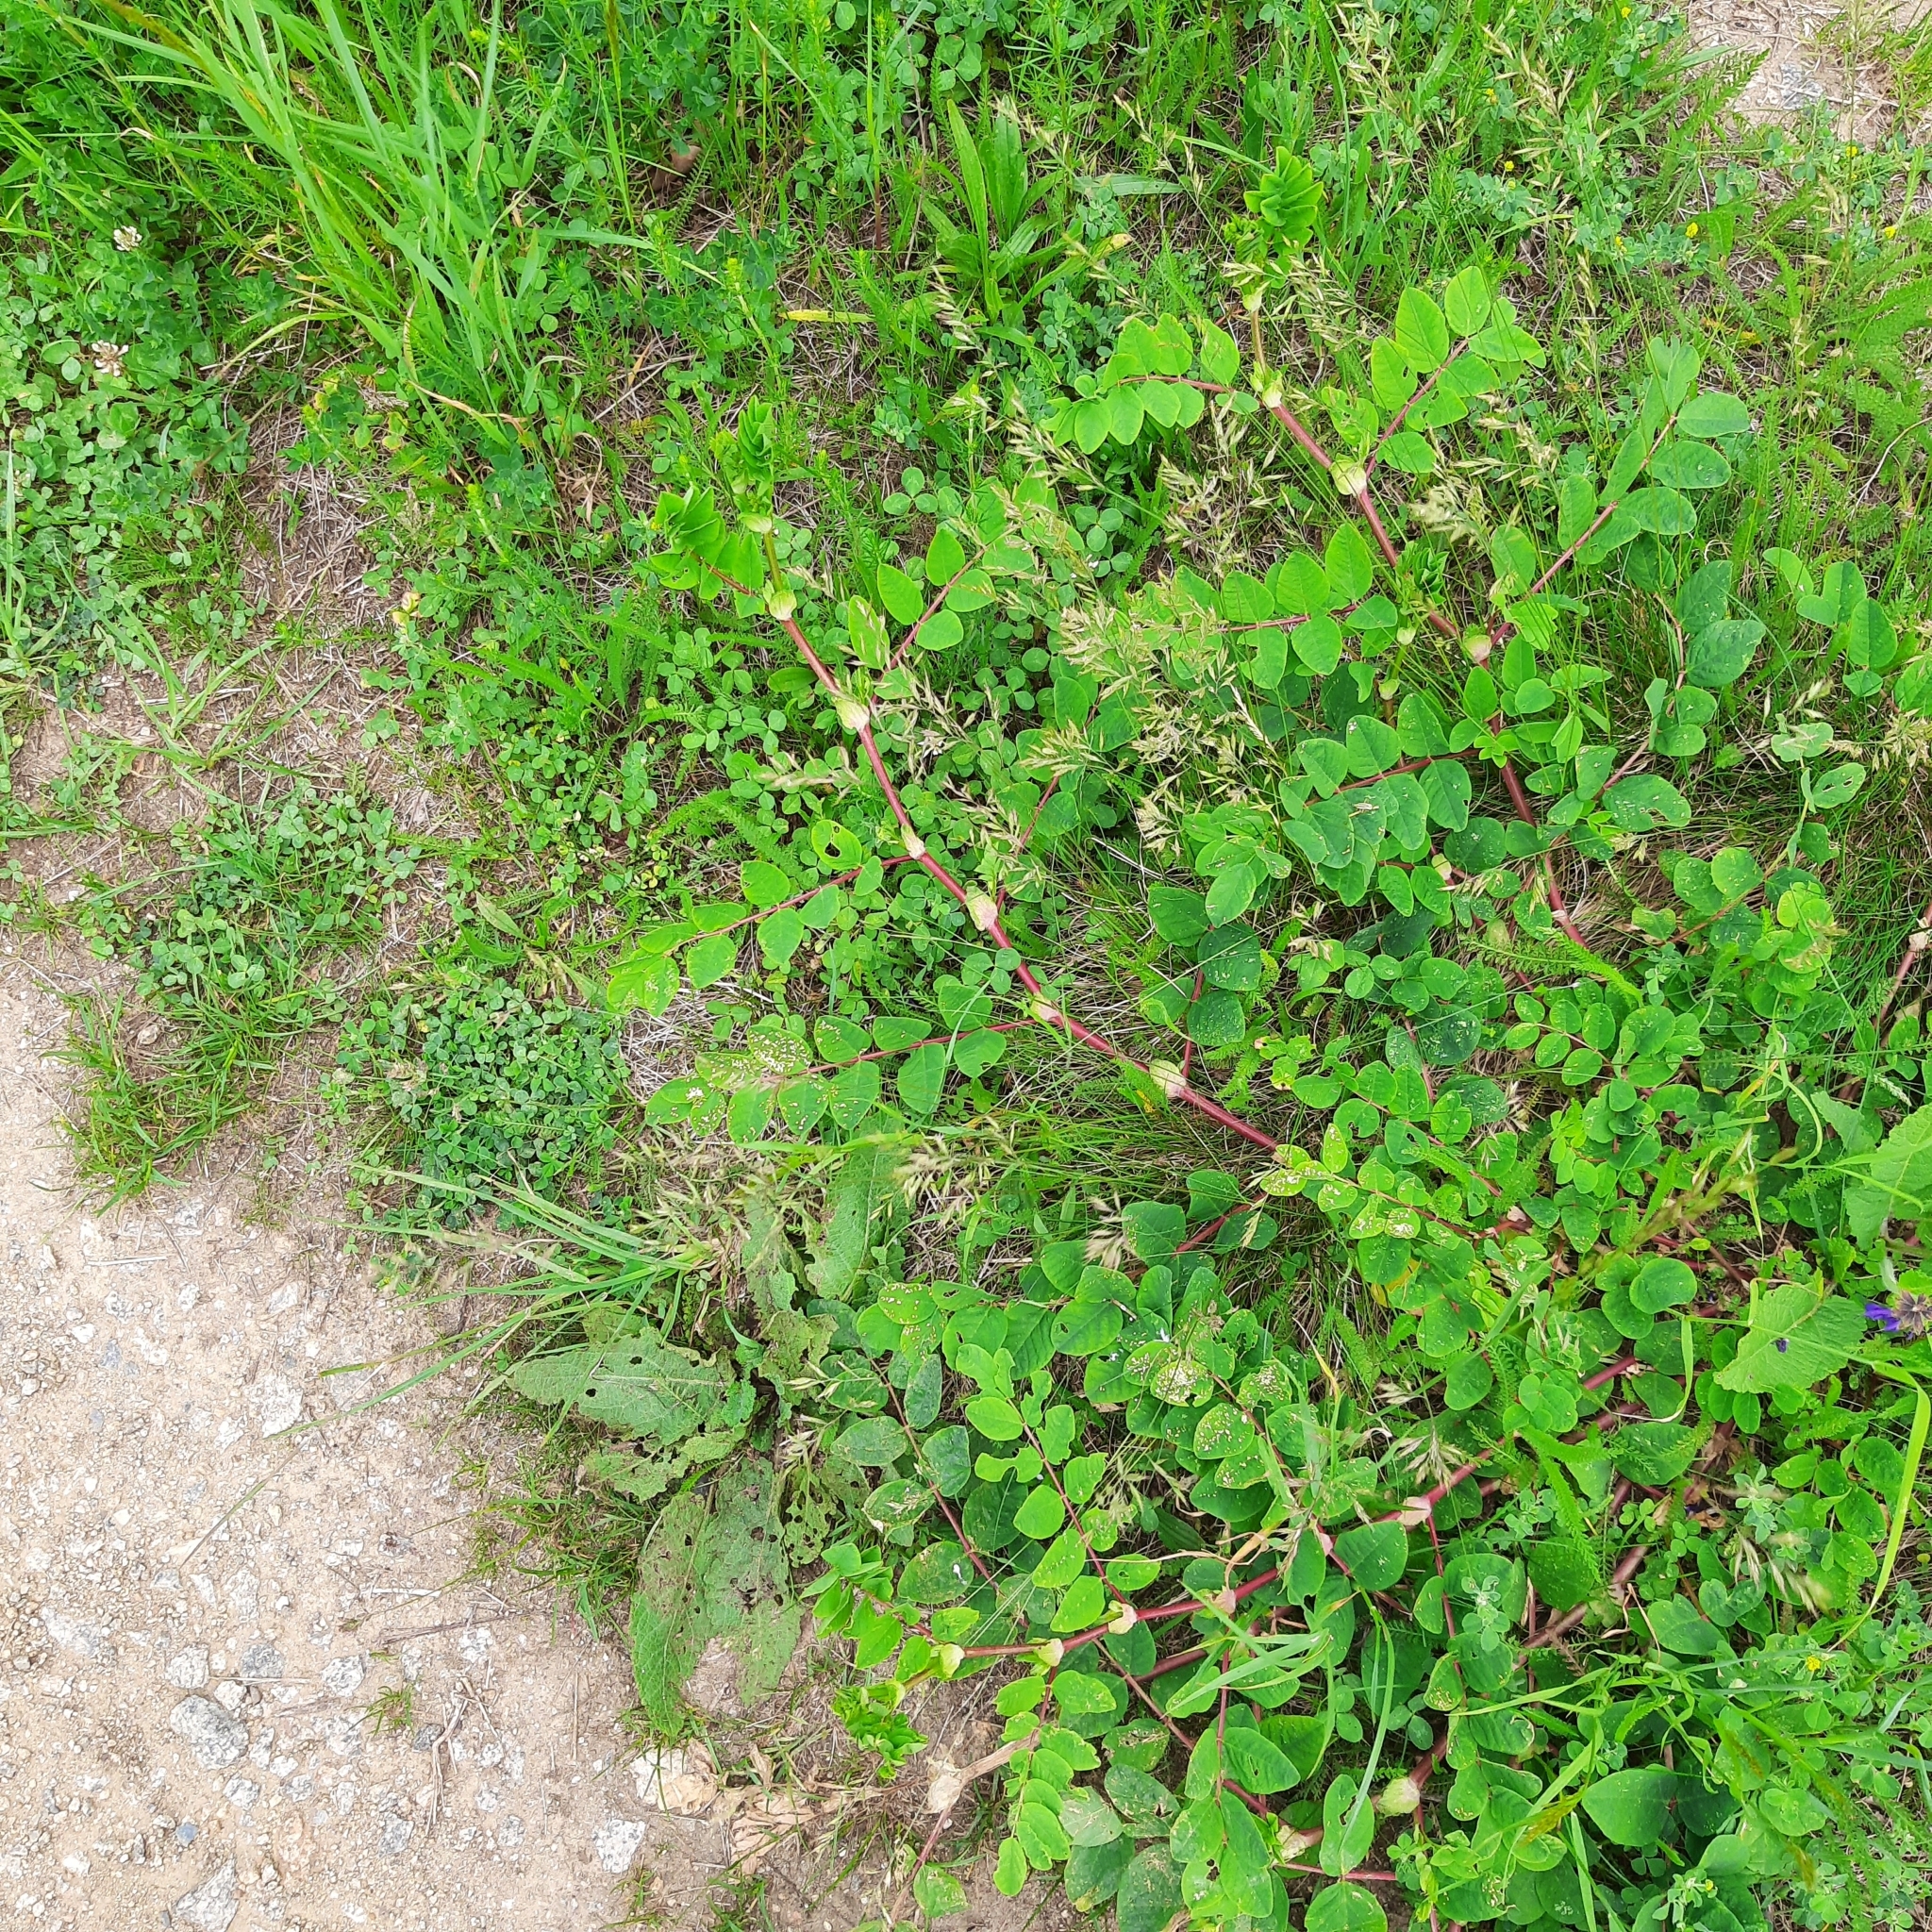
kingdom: Plantae
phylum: Tracheophyta
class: Magnoliopsida
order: Fabales
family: Fabaceae
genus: Astragalus
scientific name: Astragalus glycyphyllos
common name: Wild liquorice
